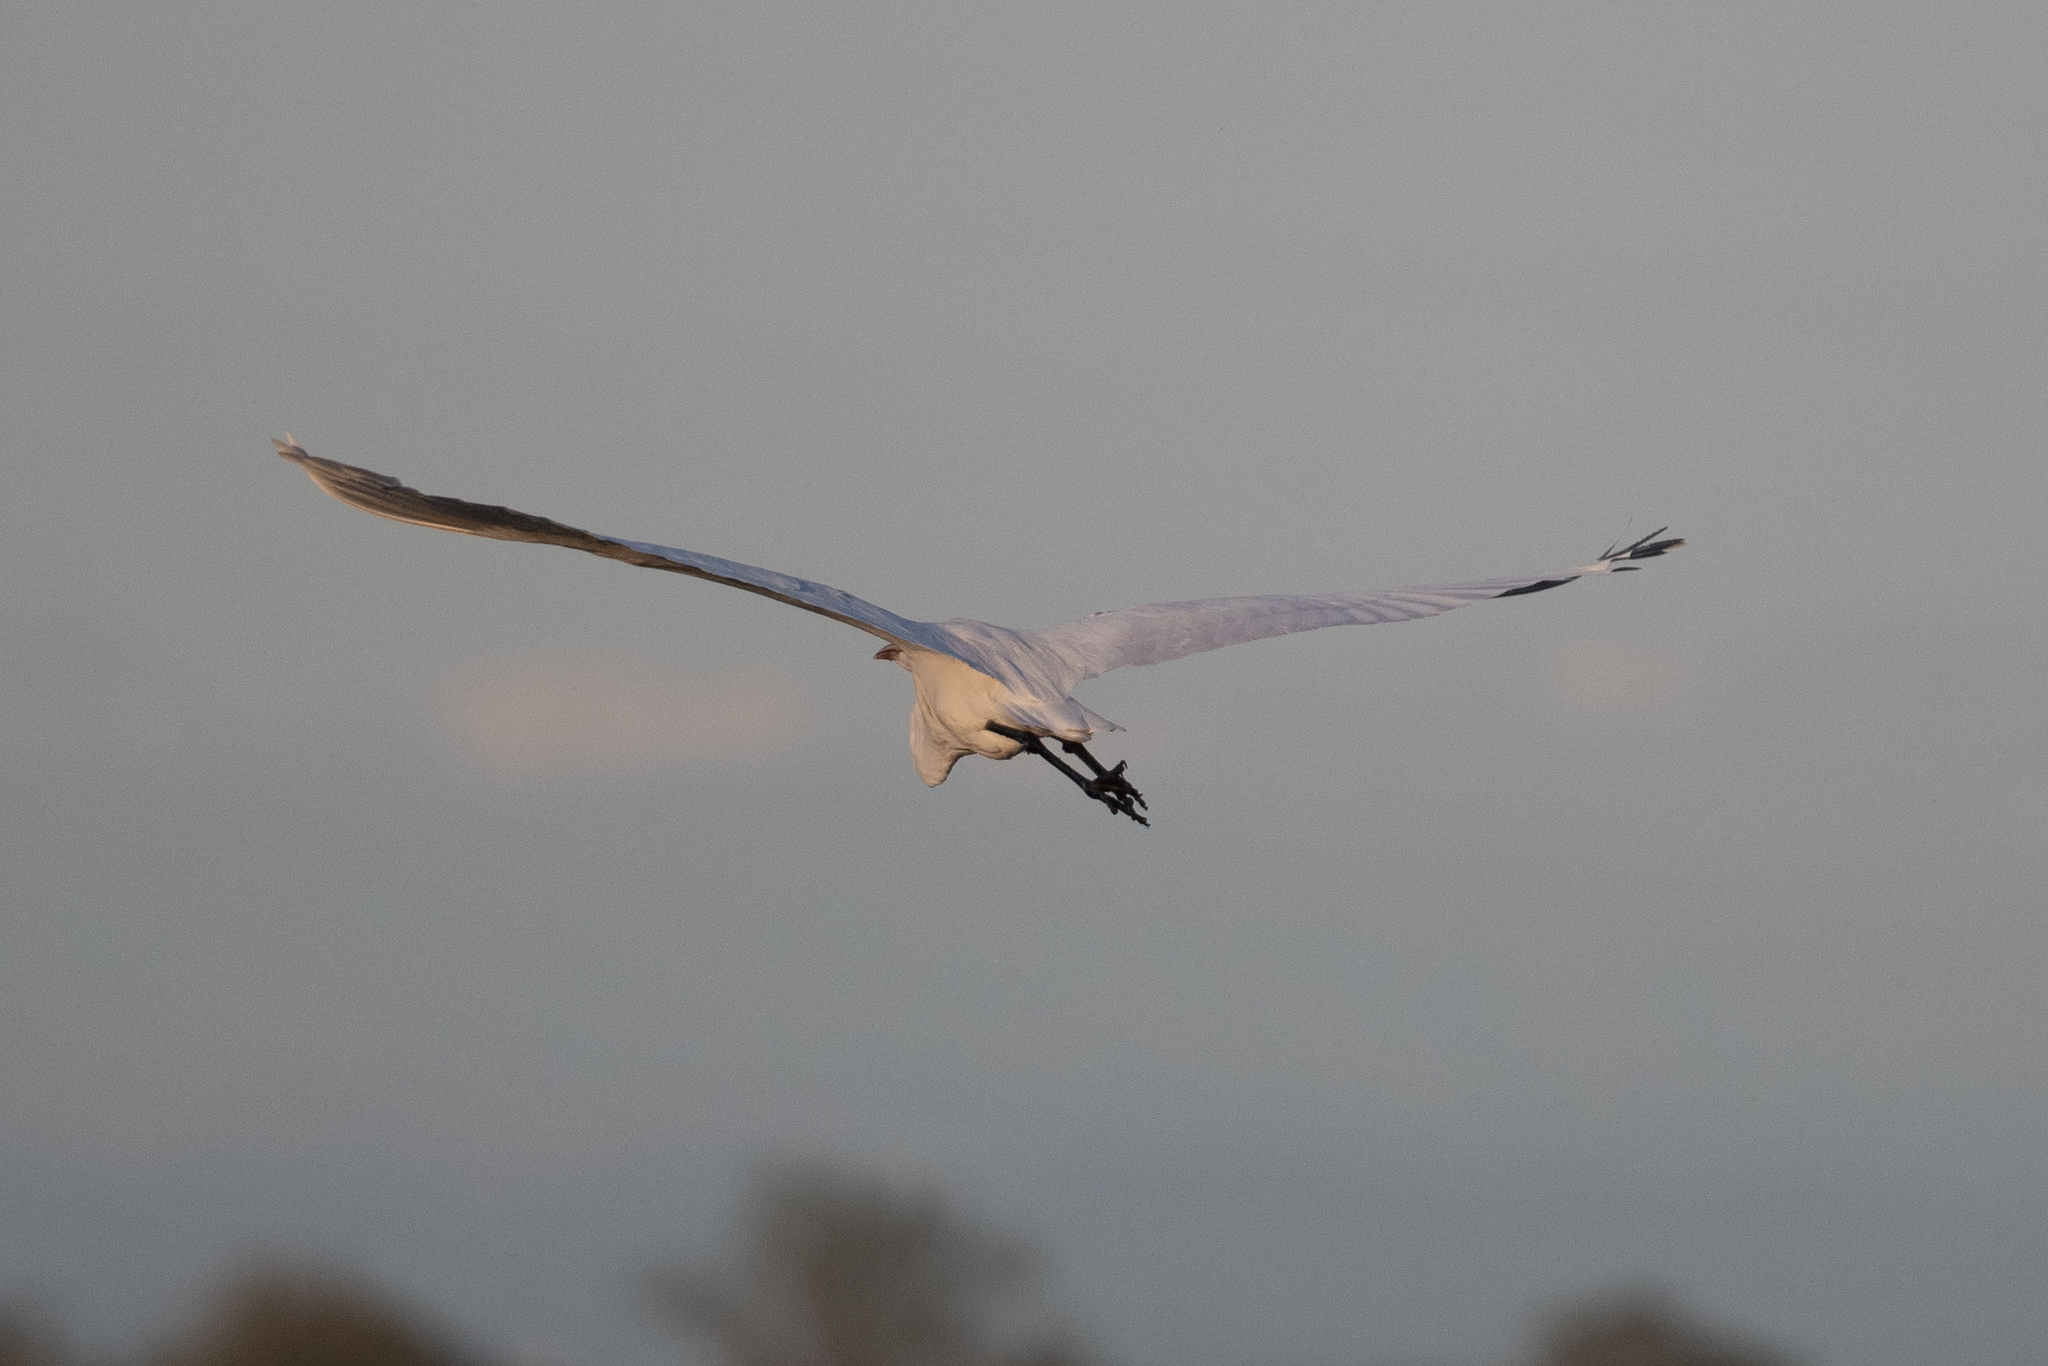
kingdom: Animalia
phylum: Chordata
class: Aves
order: Pelecaniformes
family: Ardeidae
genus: Ardea
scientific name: Ardea alba
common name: Great egret
